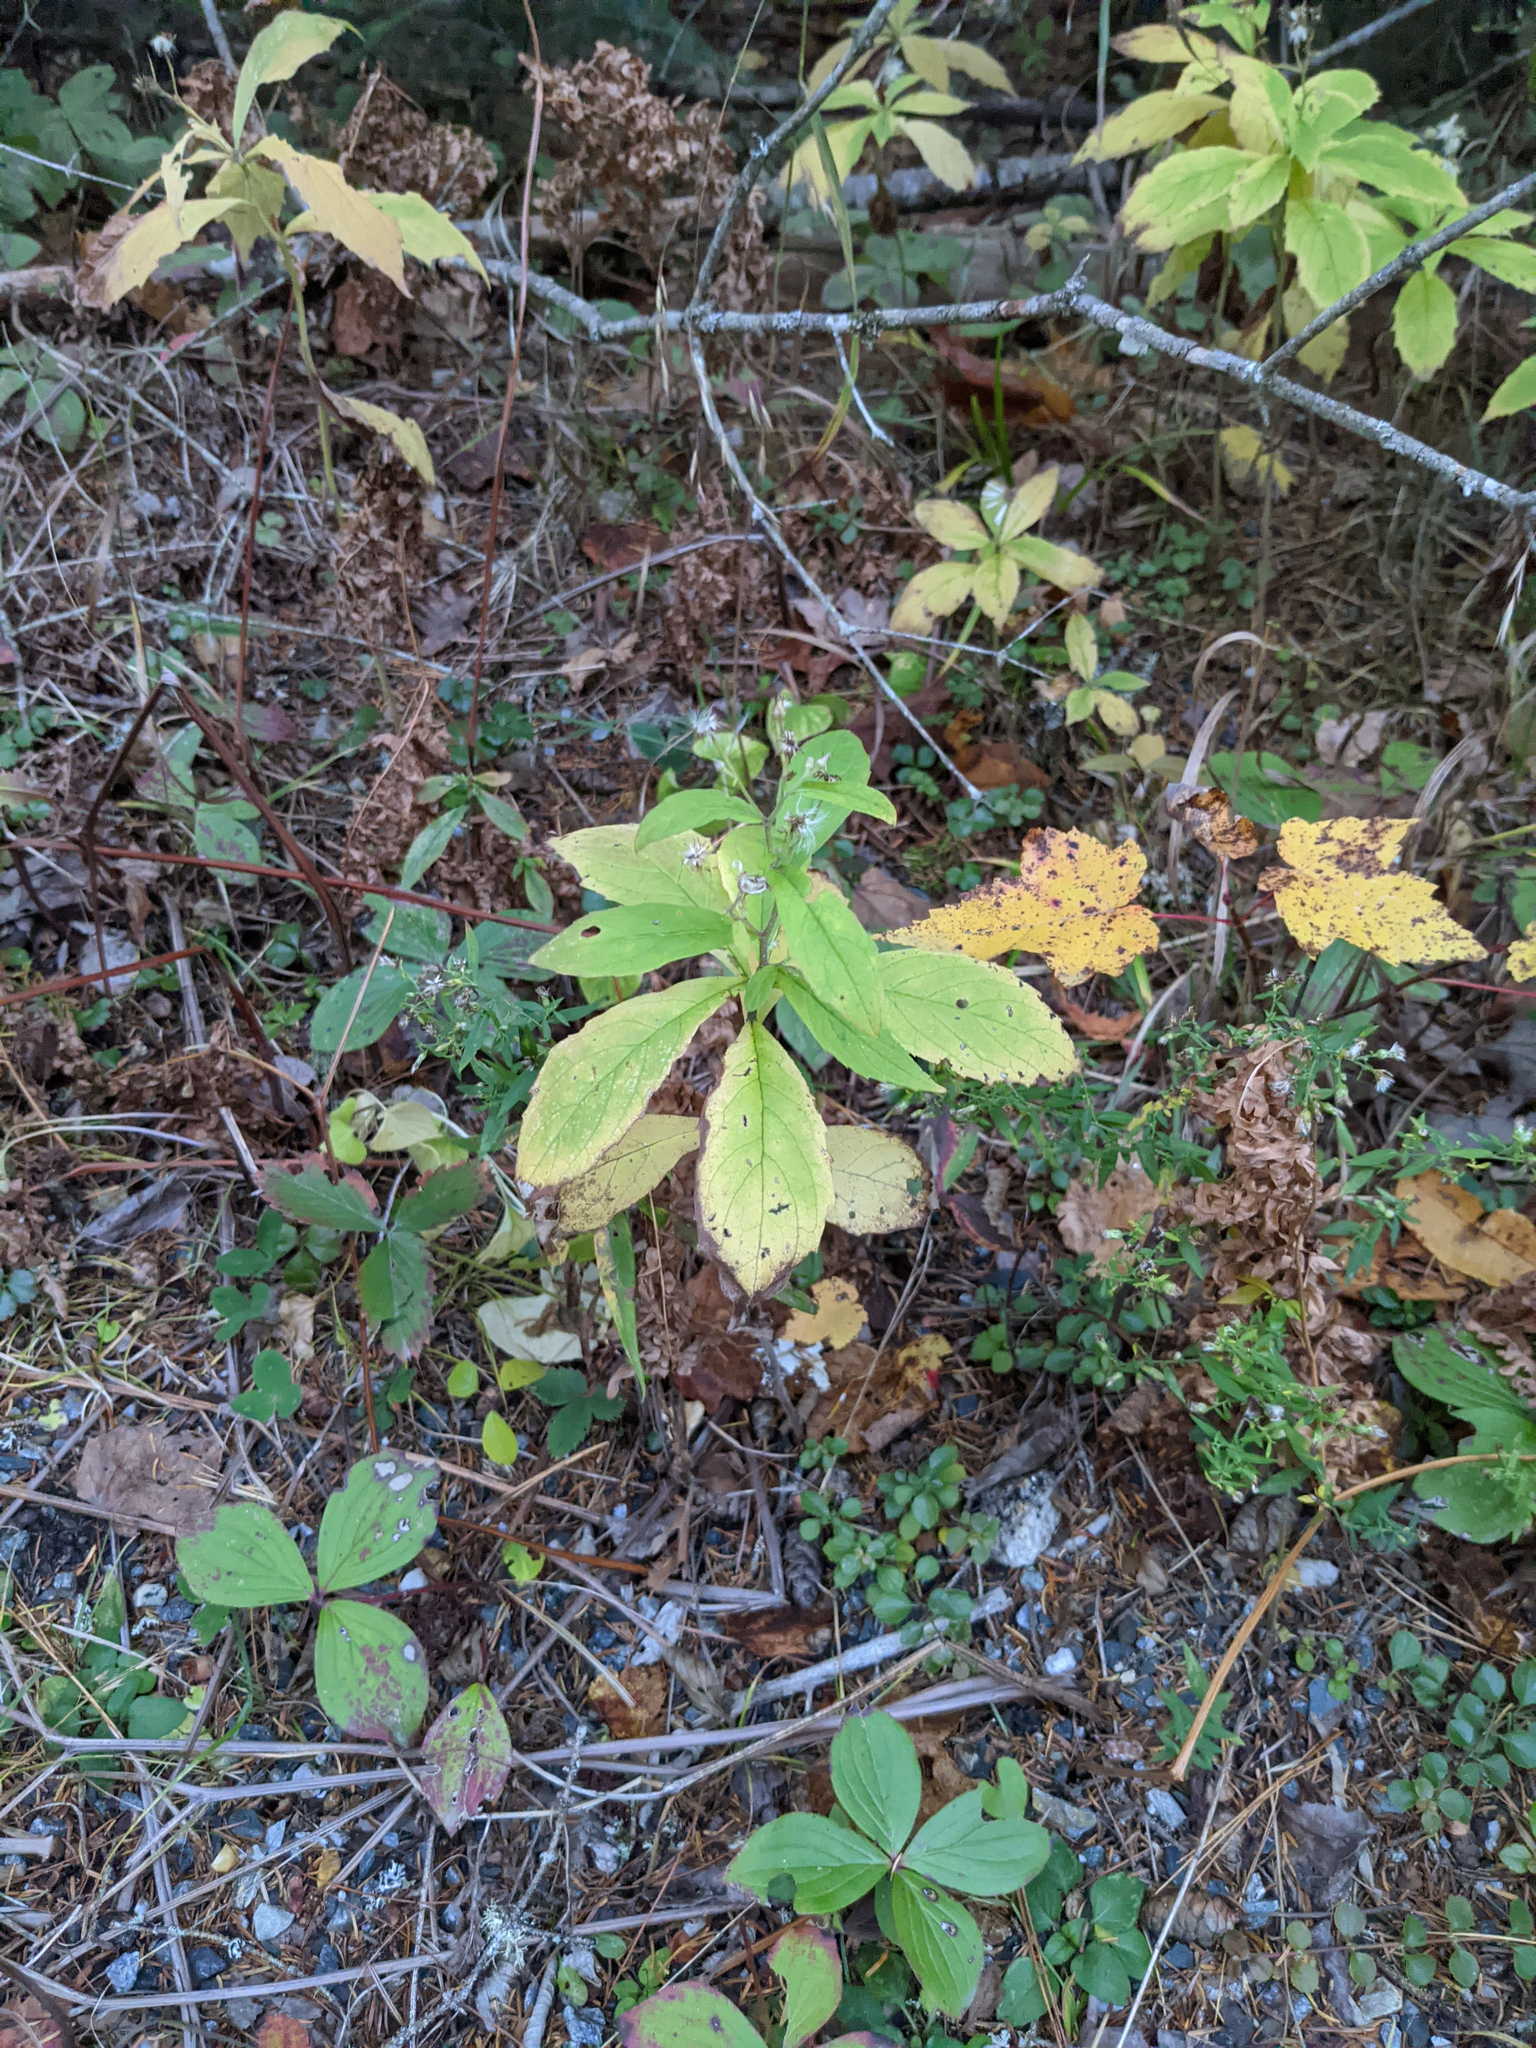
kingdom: Plantae
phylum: Tracheophyta
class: Magnoliopsida
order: Asterales
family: Asteraceae
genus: Oclemena
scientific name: Oclemena acuminata
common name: Mountain aster
